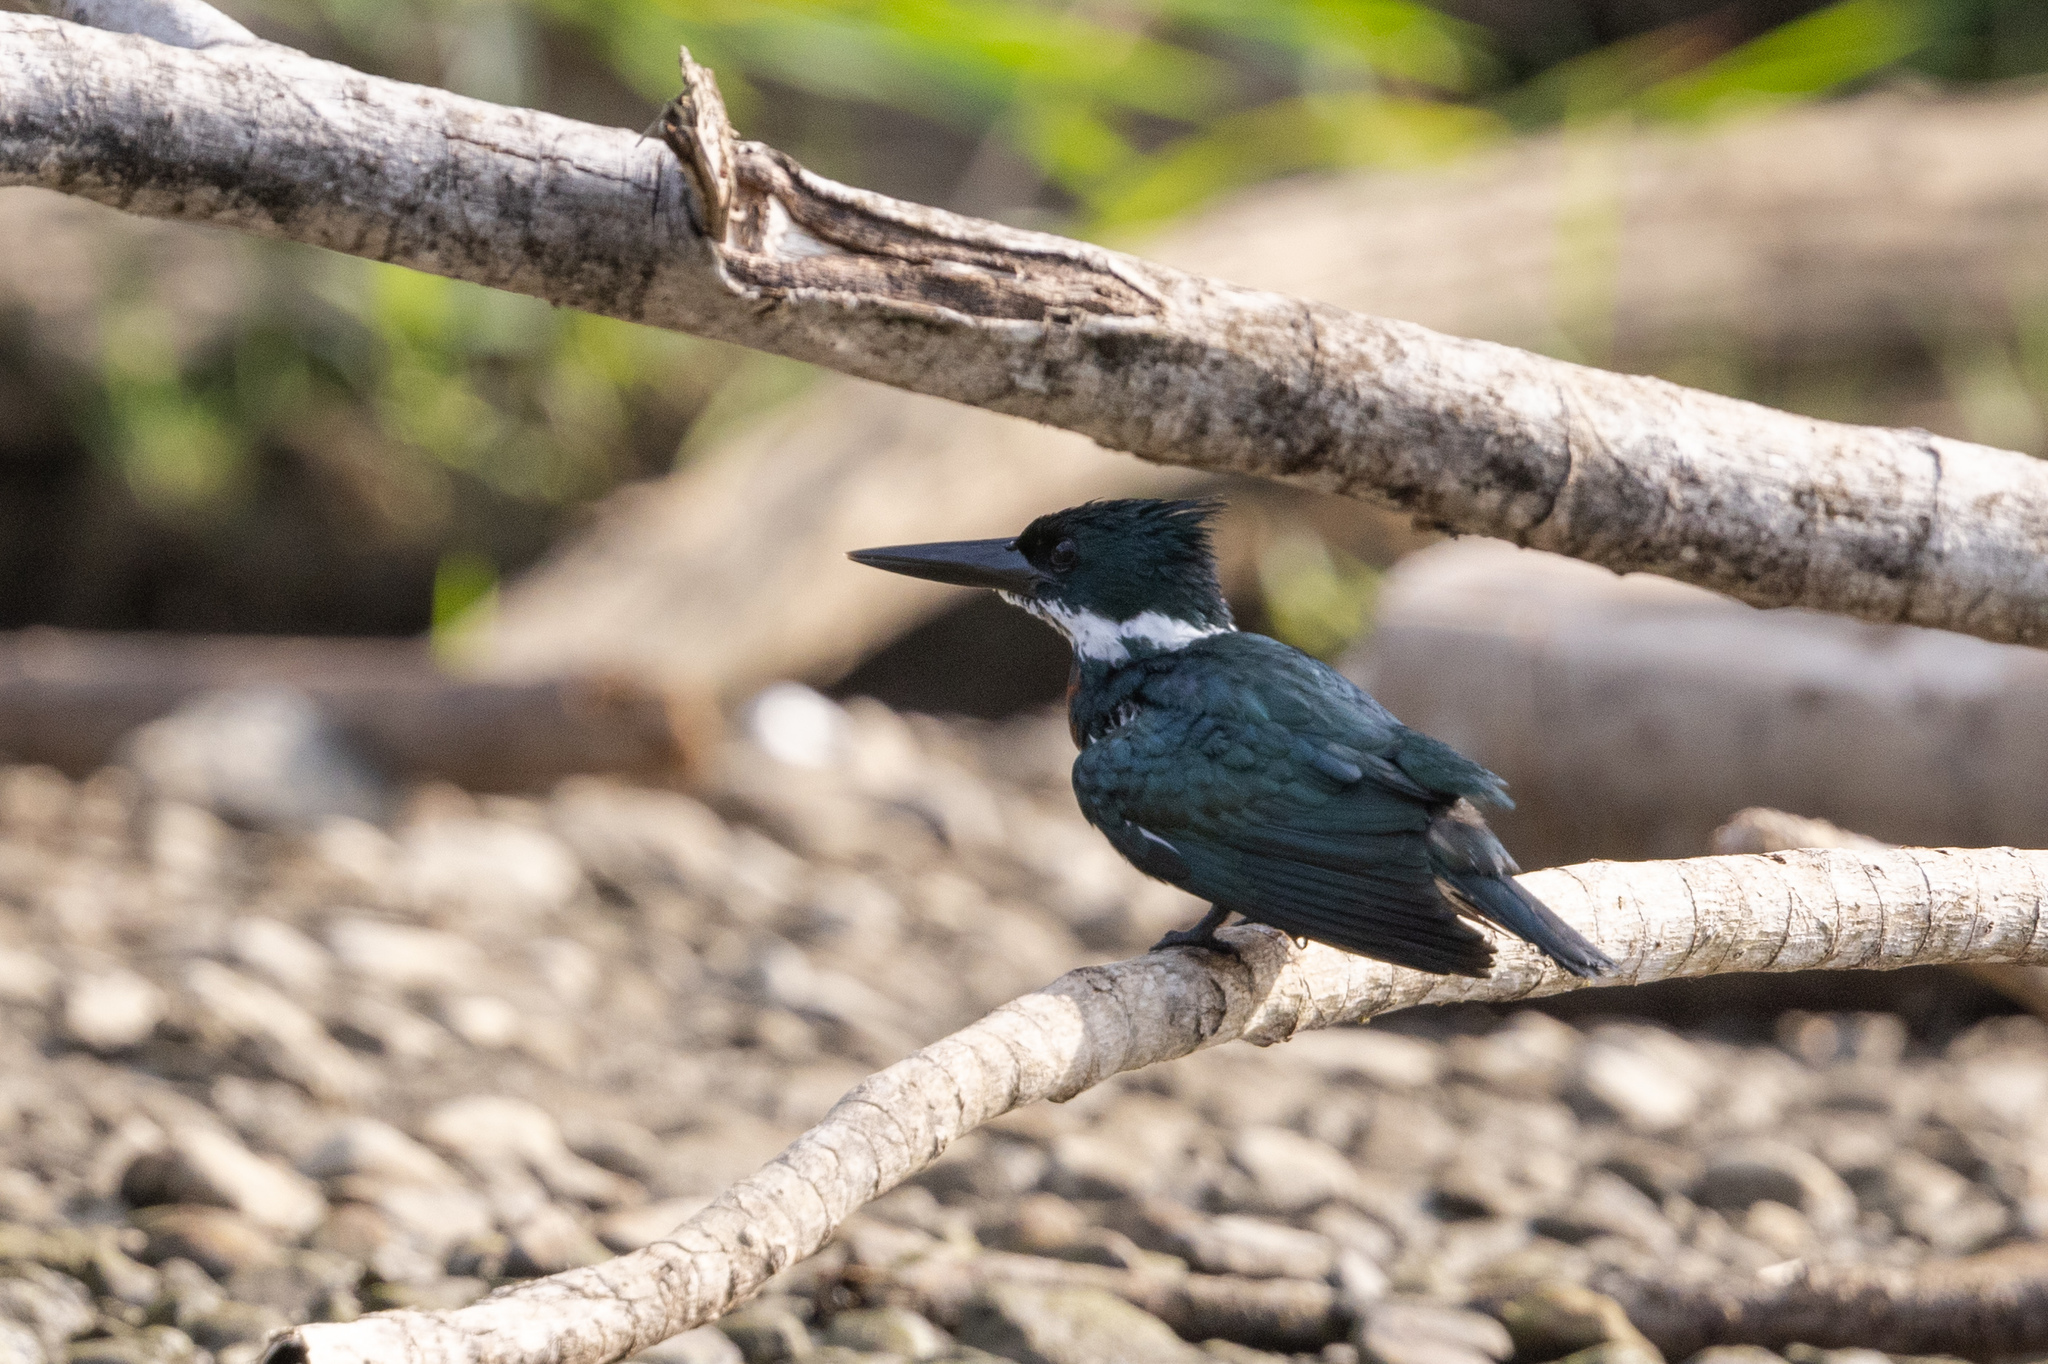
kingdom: Animalia
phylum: Chordata
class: Aves
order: Coraciiformes
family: Alcedinidae
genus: Chloroceryle
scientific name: Chloroceryle amazona
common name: Amazon kingfisher
